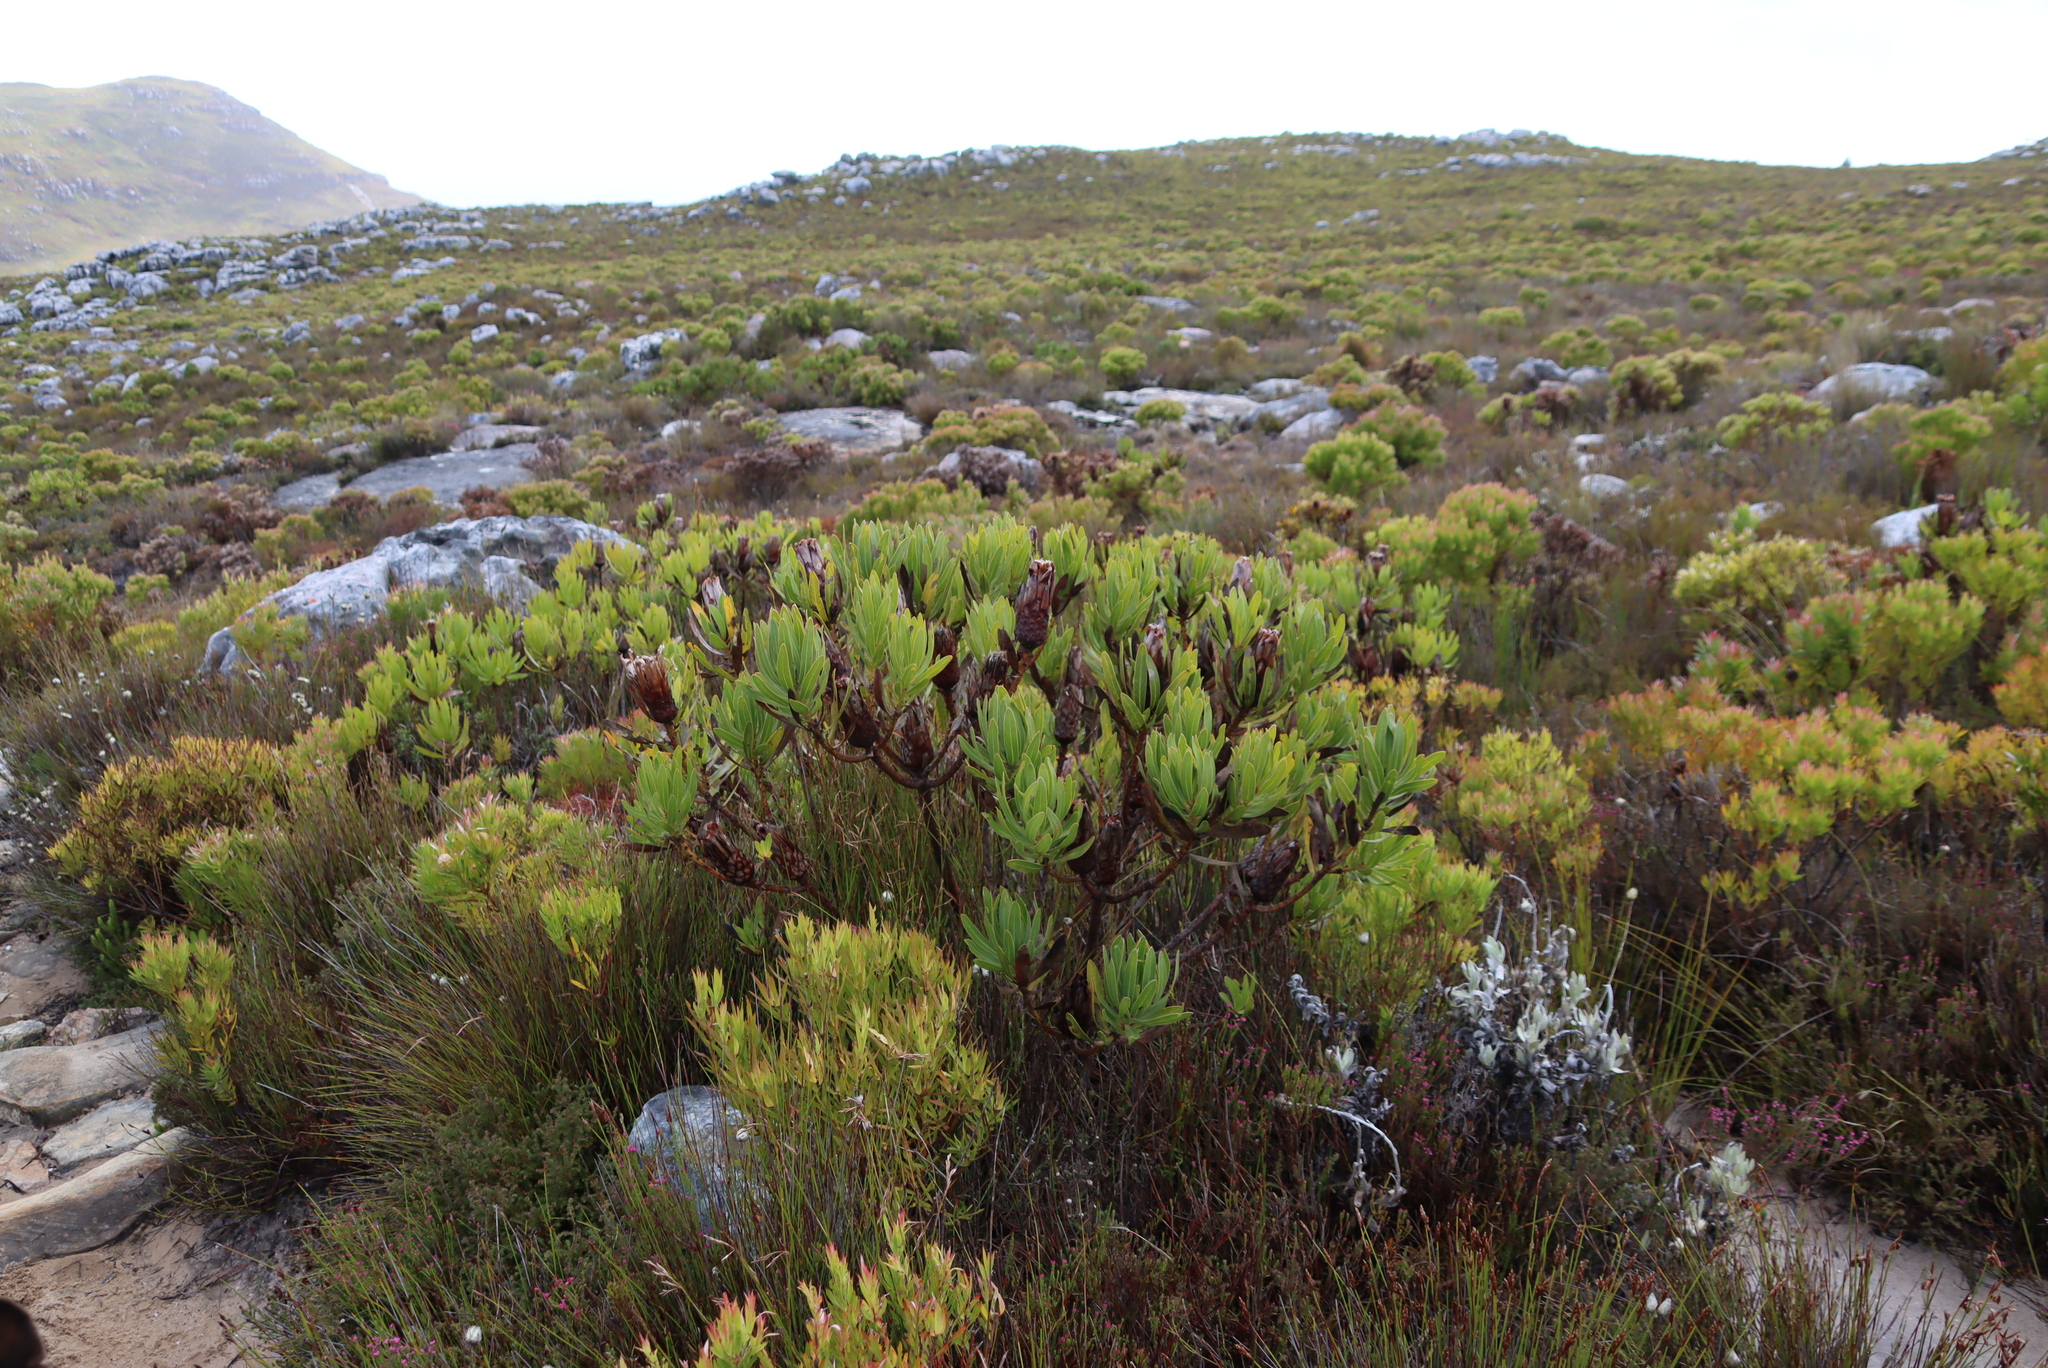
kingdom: Plantae
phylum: Tracheophyta
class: Magnoliopsida
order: Proteales
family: Proteaceae
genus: Protea
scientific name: Protea lepidocarpodendron
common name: Black-bearded protea
